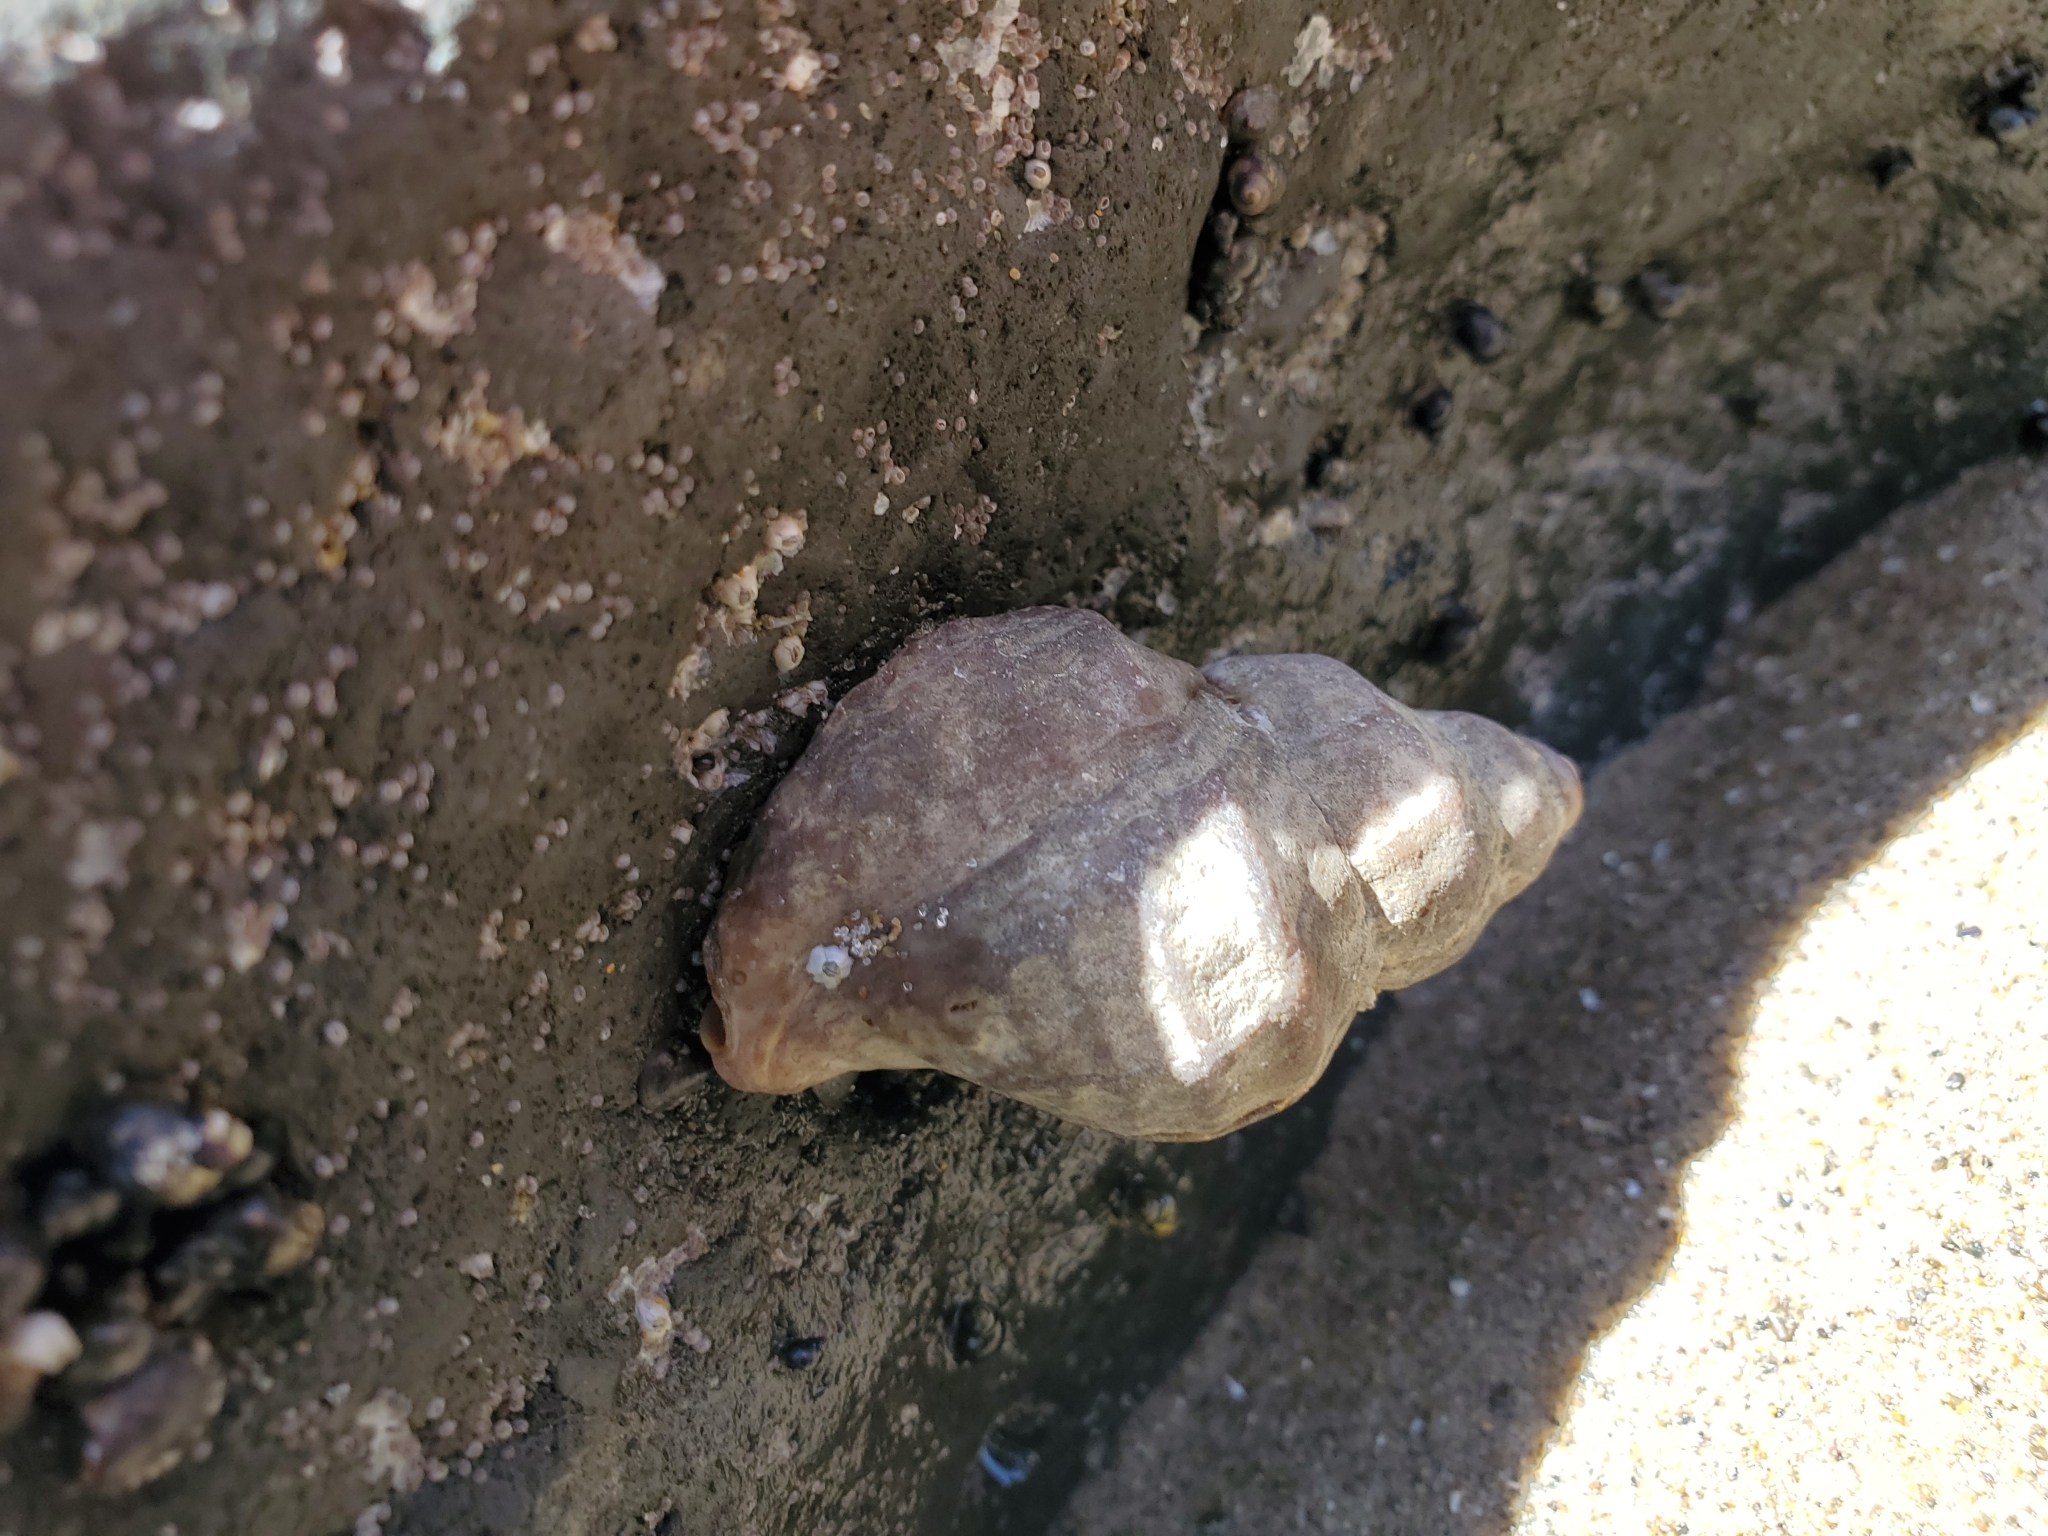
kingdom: Animalia
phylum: Mollusca
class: Gastropoda
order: Neogastropoda
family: Muricidae
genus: Nucella
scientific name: Nucella lamellosa
